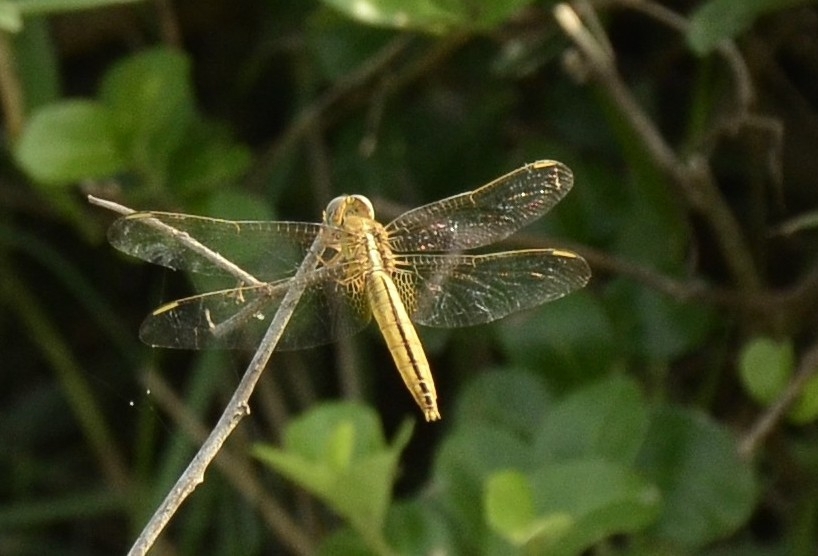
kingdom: Animalia
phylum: Arthropoda
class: Insecta
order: Odonata
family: Libellulidae
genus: Crocothemis
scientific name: Crocothemis servilia
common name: Scarlet skimmer
